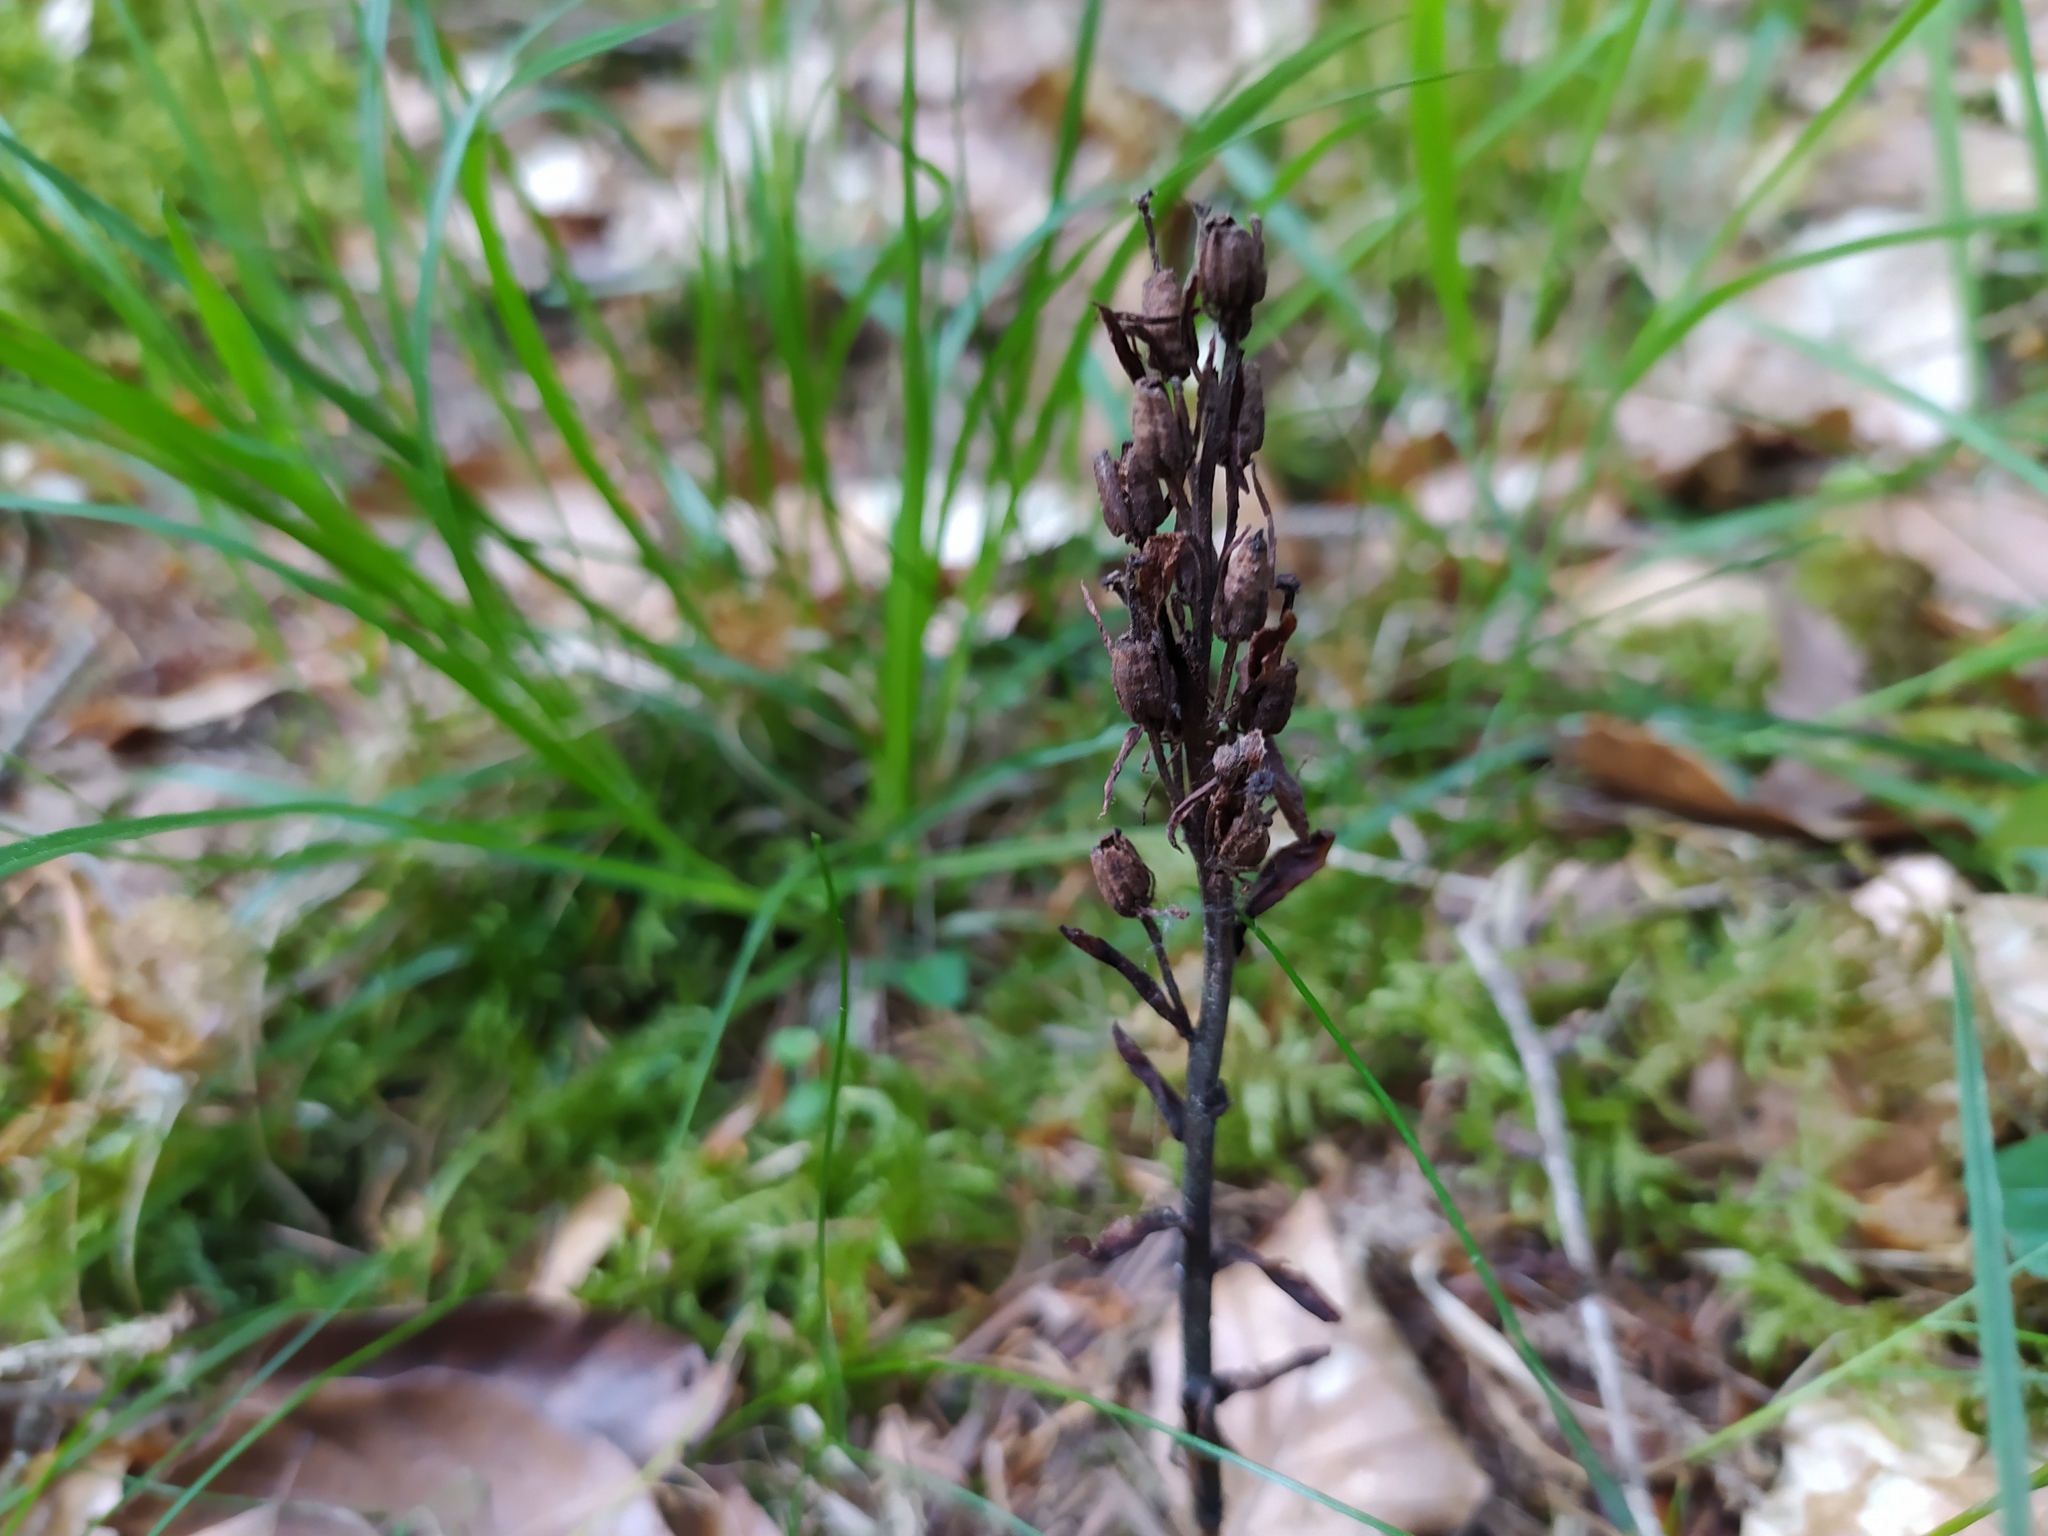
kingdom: Plantae
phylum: Tracheophyta
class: Magnoliopsida
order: Ericales
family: Ericaceae
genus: Hypopitys
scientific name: Hypopitys monotropa
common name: Yellow bird's-nest
